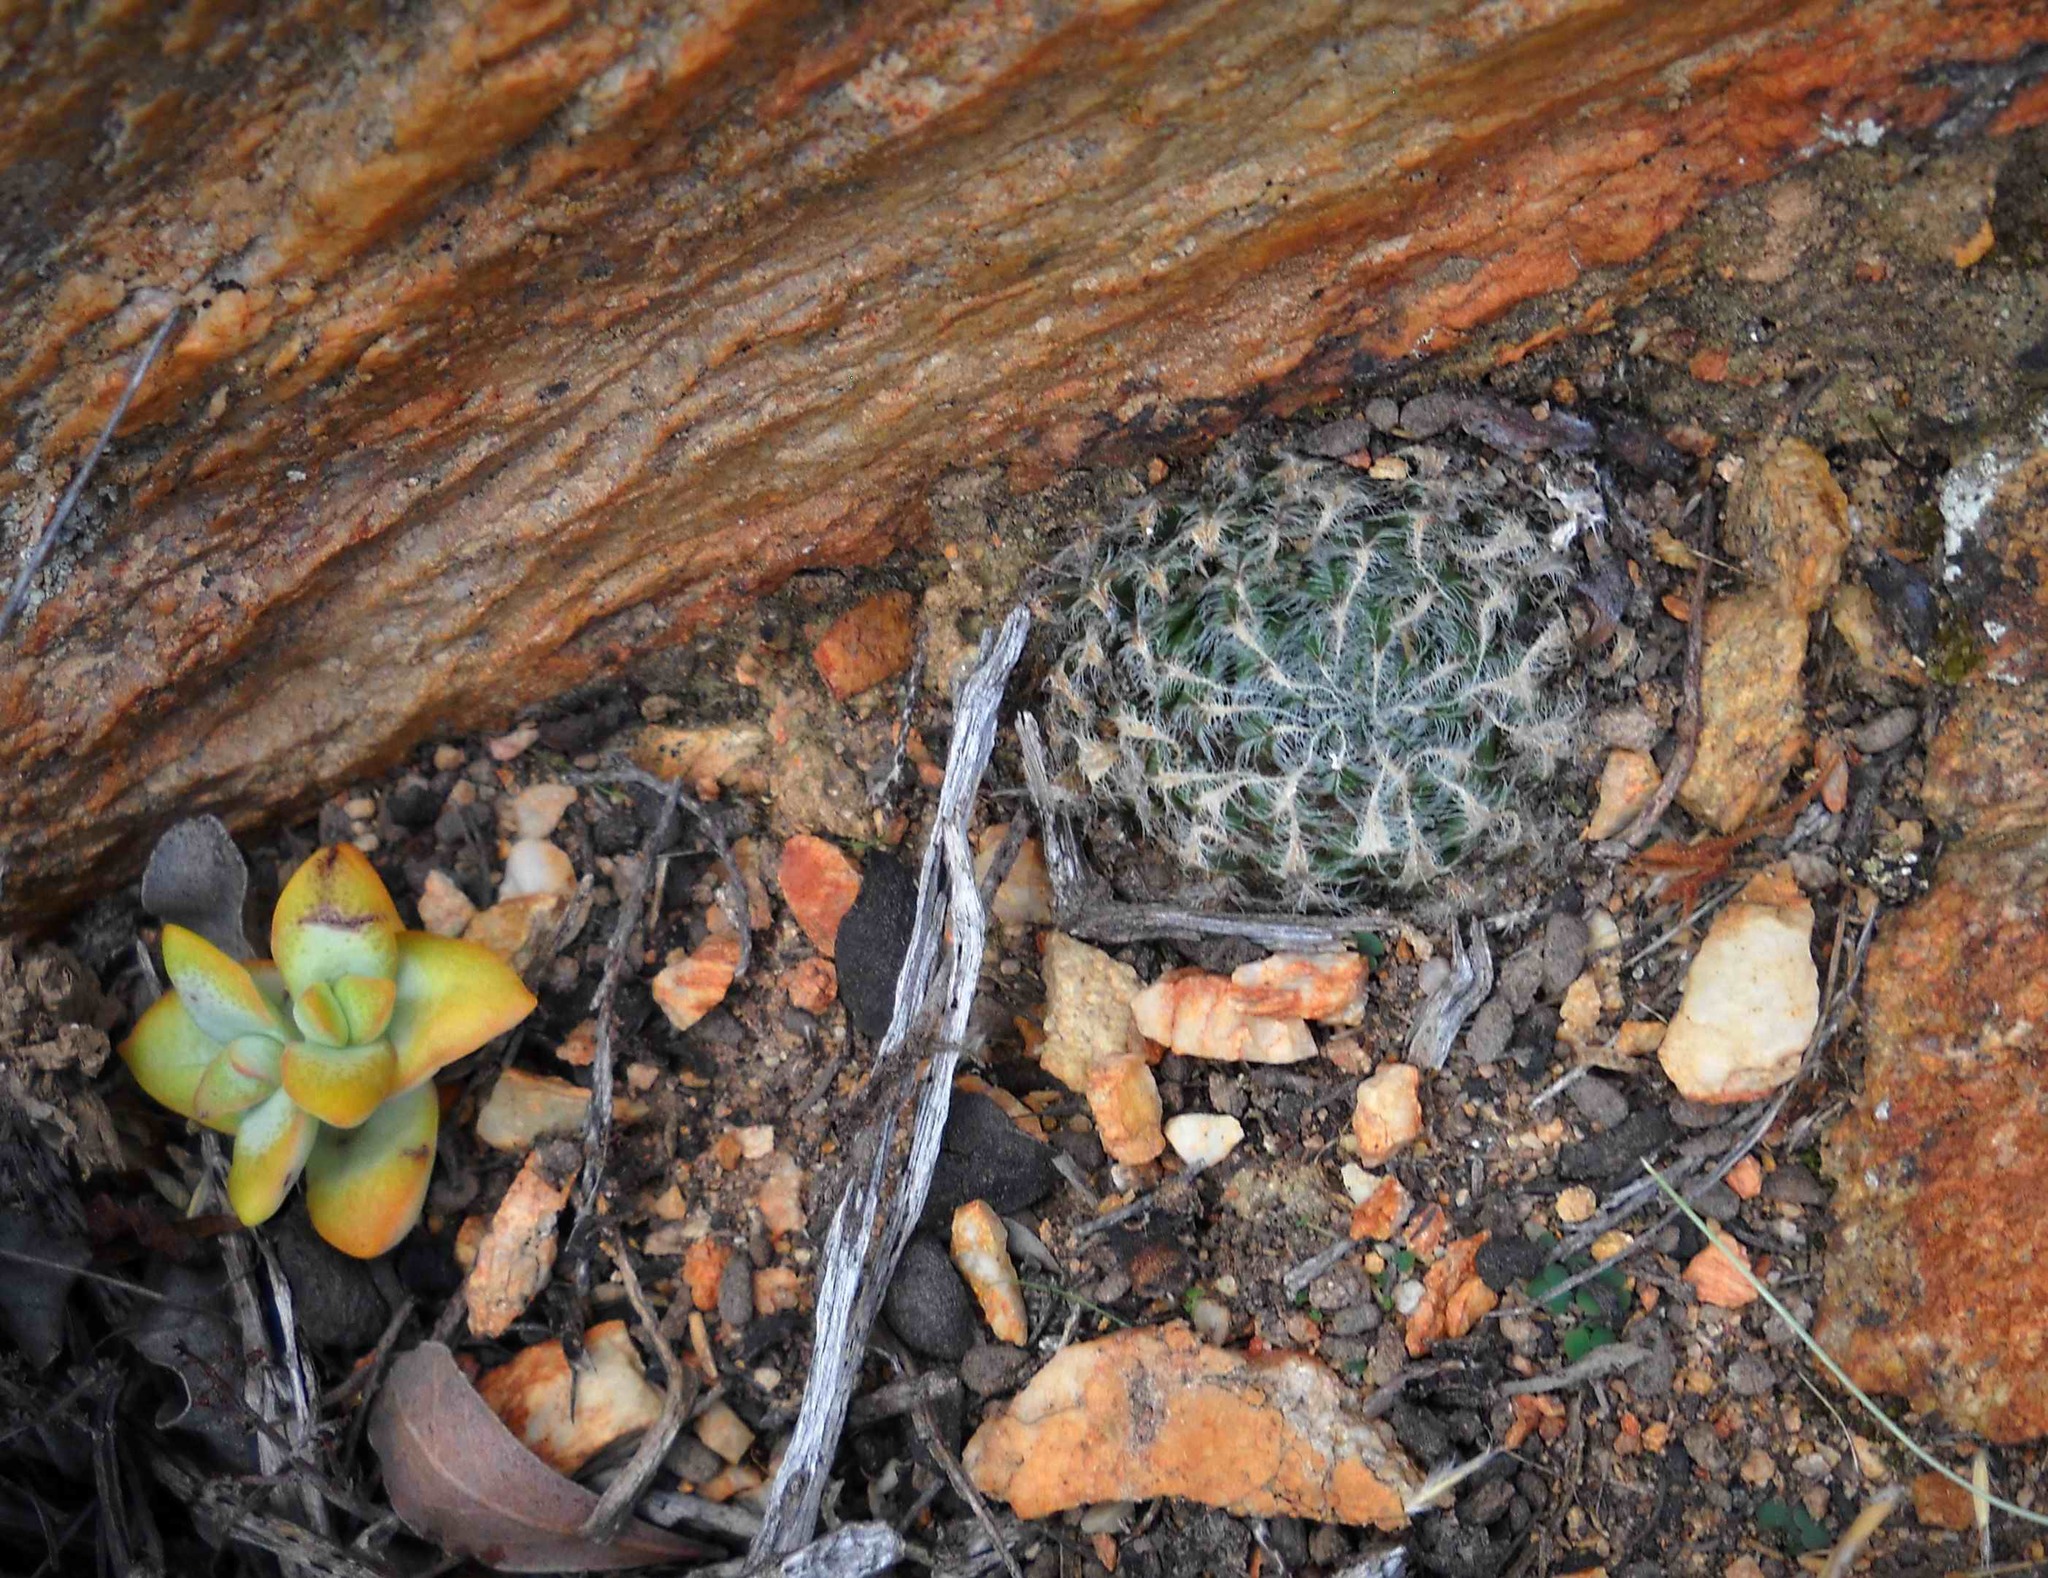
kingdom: Plantae
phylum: Tracheophyta
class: Liliopsida
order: Asparagales
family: Asphodelaceae
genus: Haworthia
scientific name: Haworthia arachnoidea
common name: Cobweb-aloe
